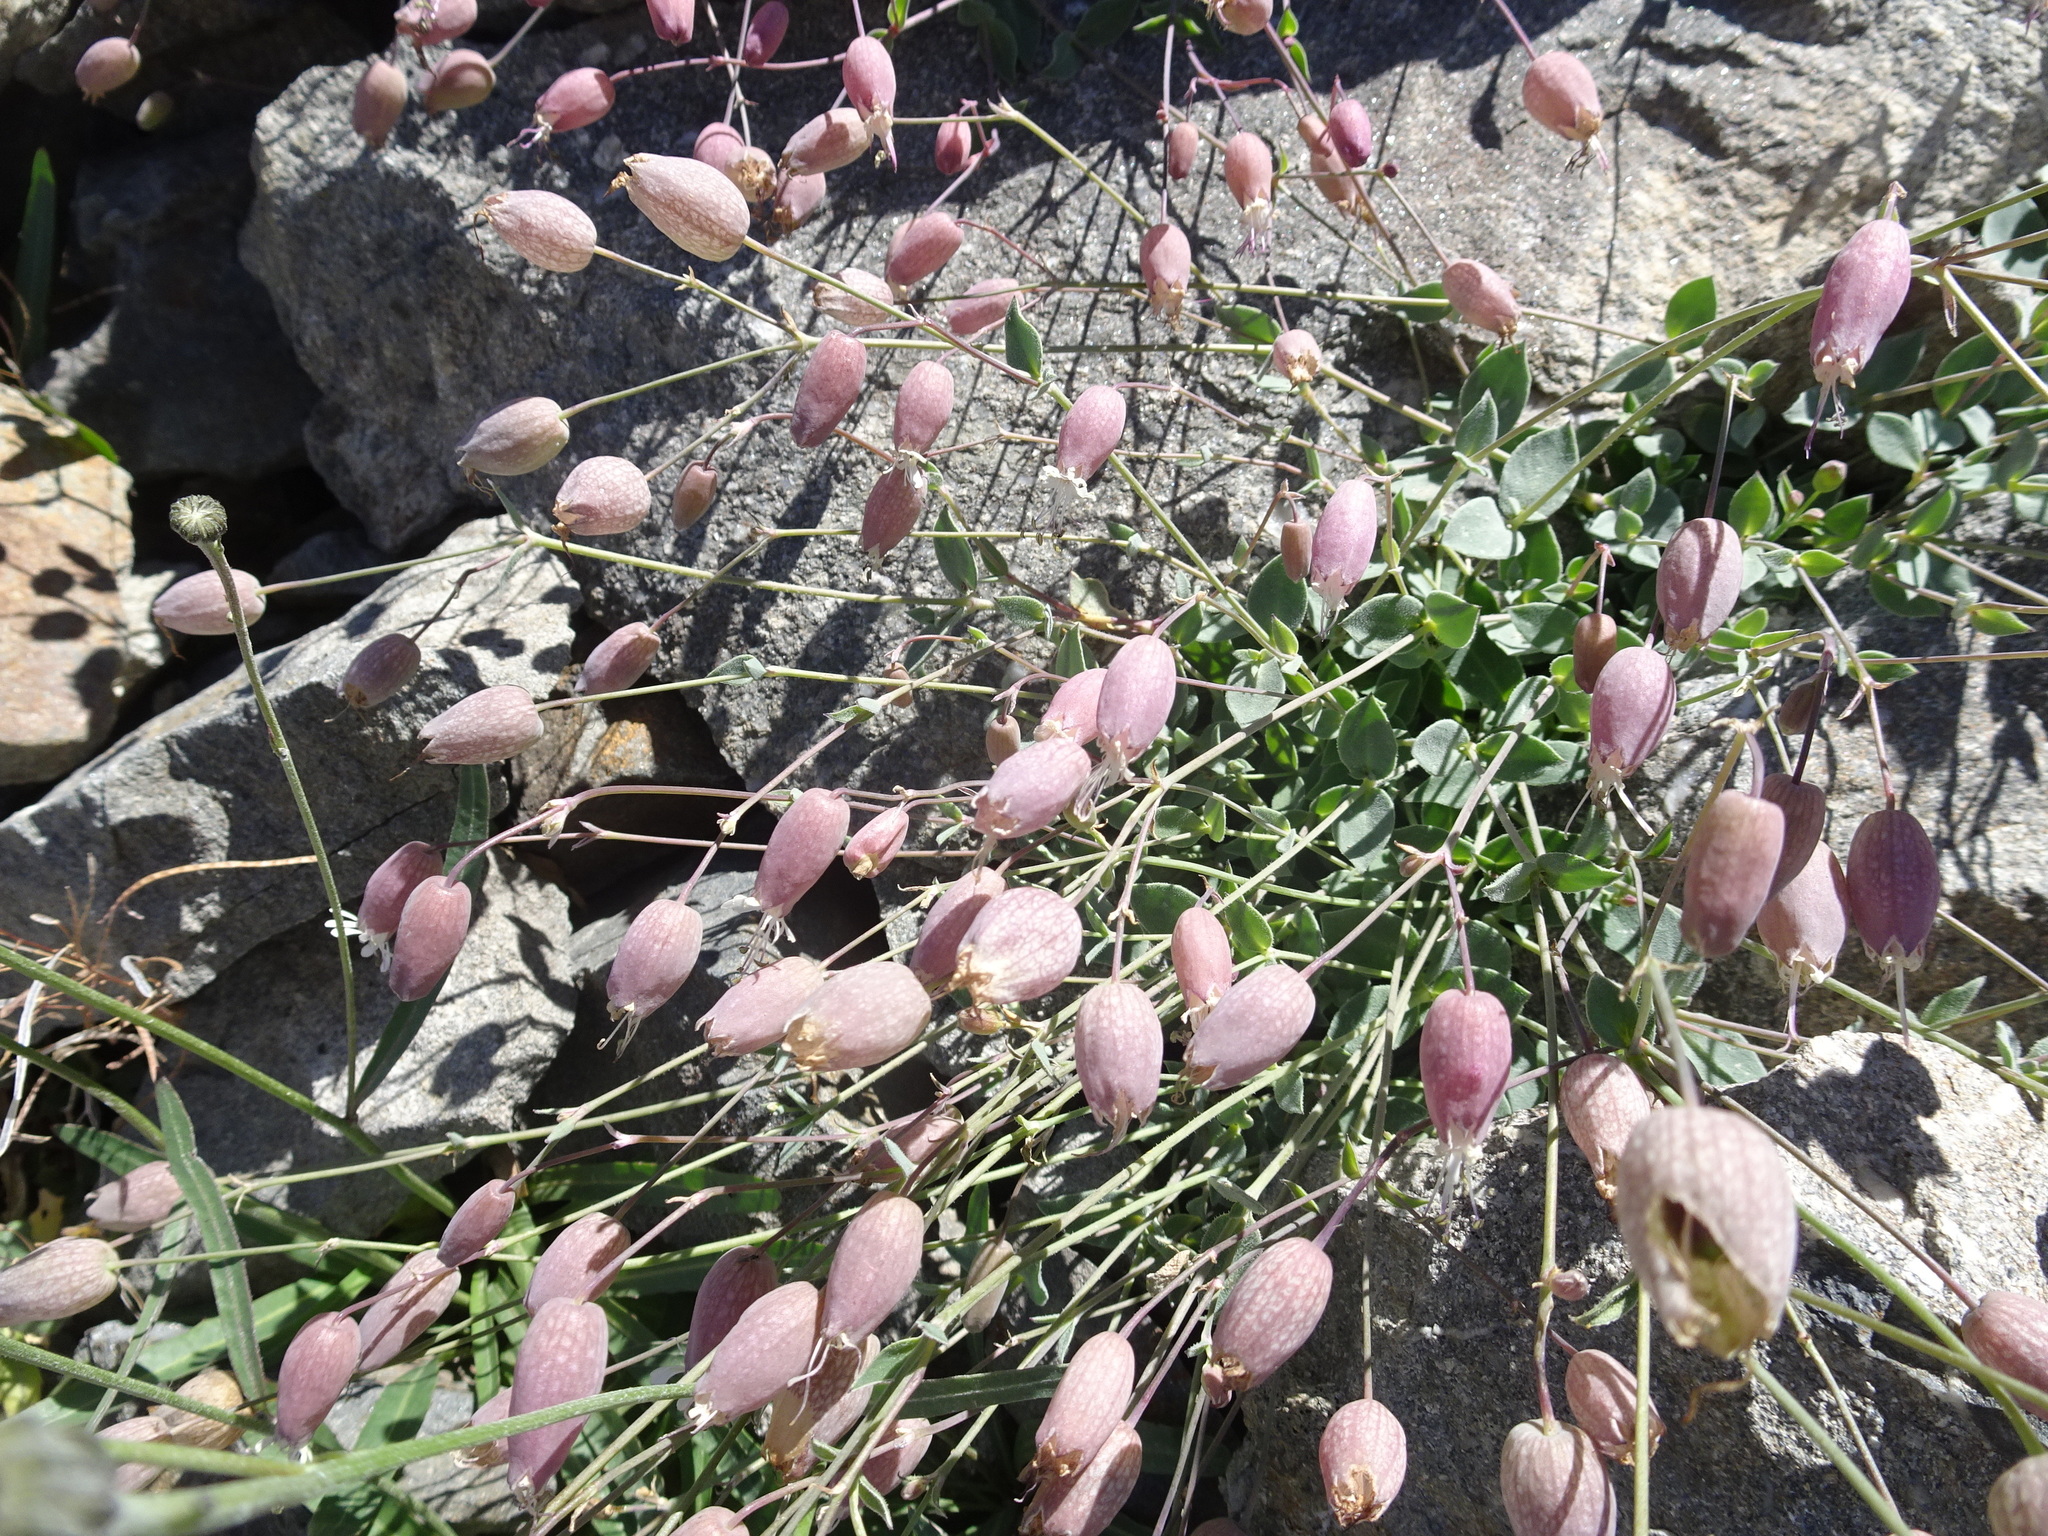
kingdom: Plantae
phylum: Tracheophyta
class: Magnoliopsida
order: Caryophyllales
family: Caryophyllaceae
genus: Silene
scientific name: Silene vulgaris
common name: Bladder campion
